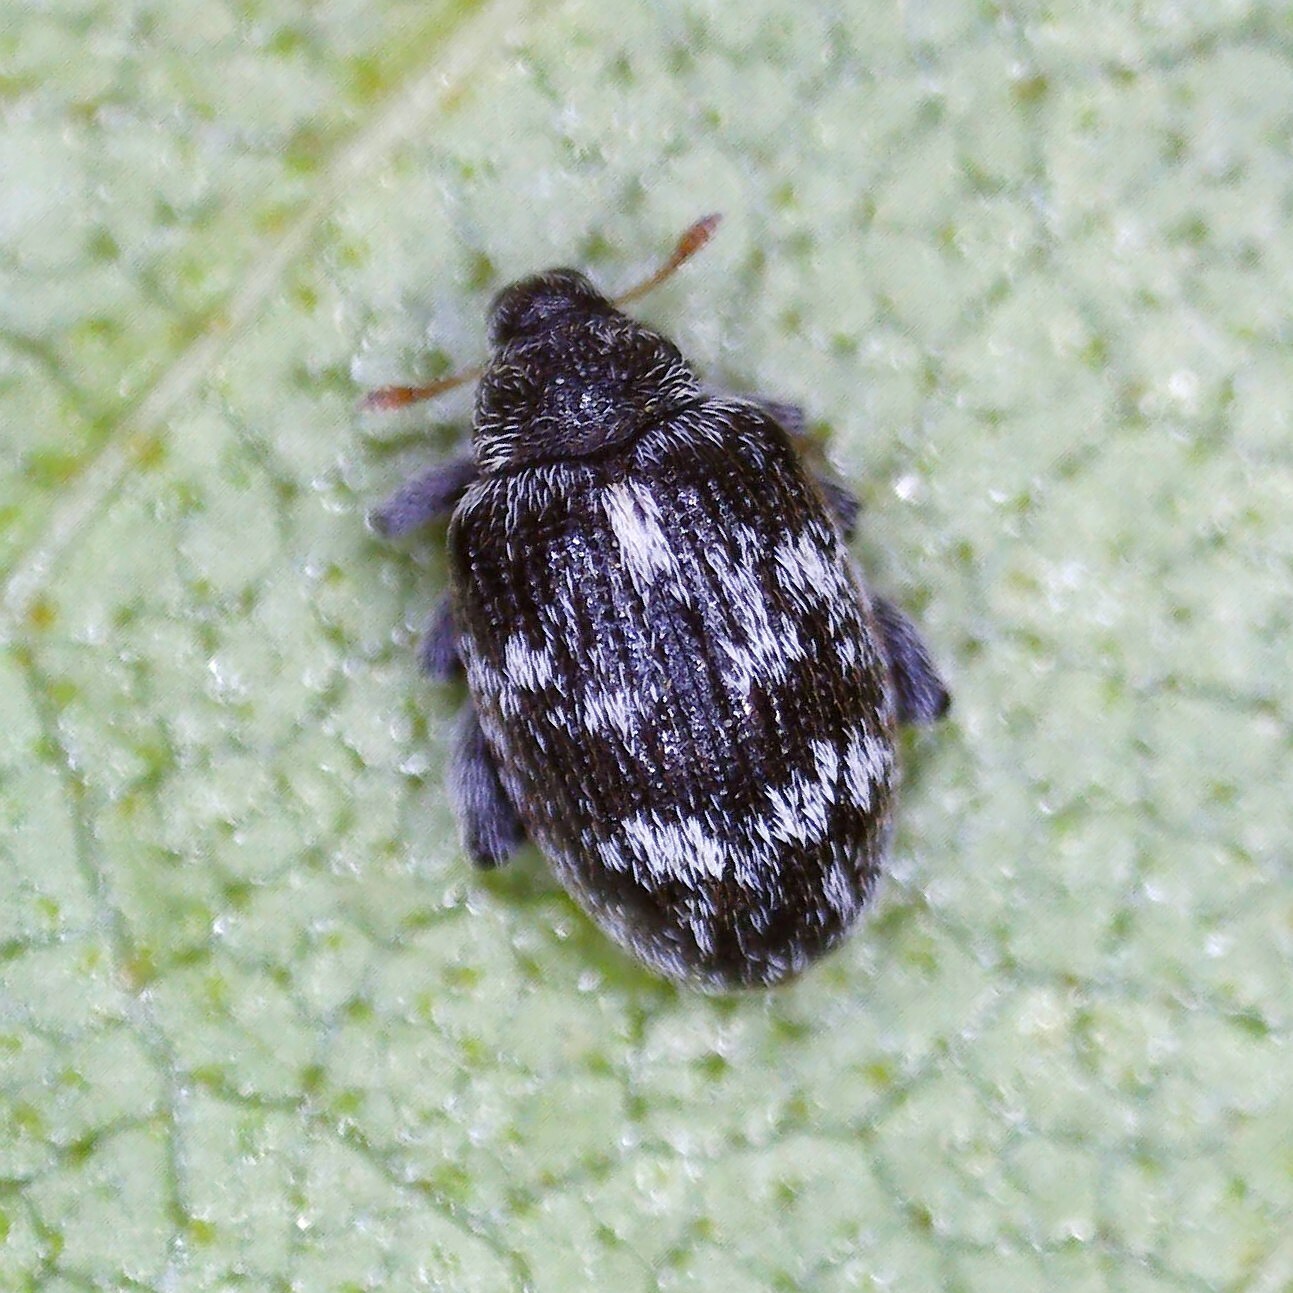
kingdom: Animalia
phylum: Arthropoda
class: Insecta
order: Coleoptera
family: Curculionidae
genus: Orchestes
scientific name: Orchestes rusci
